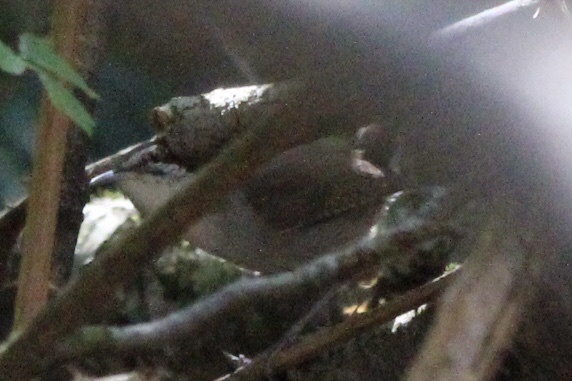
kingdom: Animalia
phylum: Chordata
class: Aves
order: Passeriformes
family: Troglodytidae
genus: Thryomanes
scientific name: Thryomanes bewickii
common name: Bewick's wren
